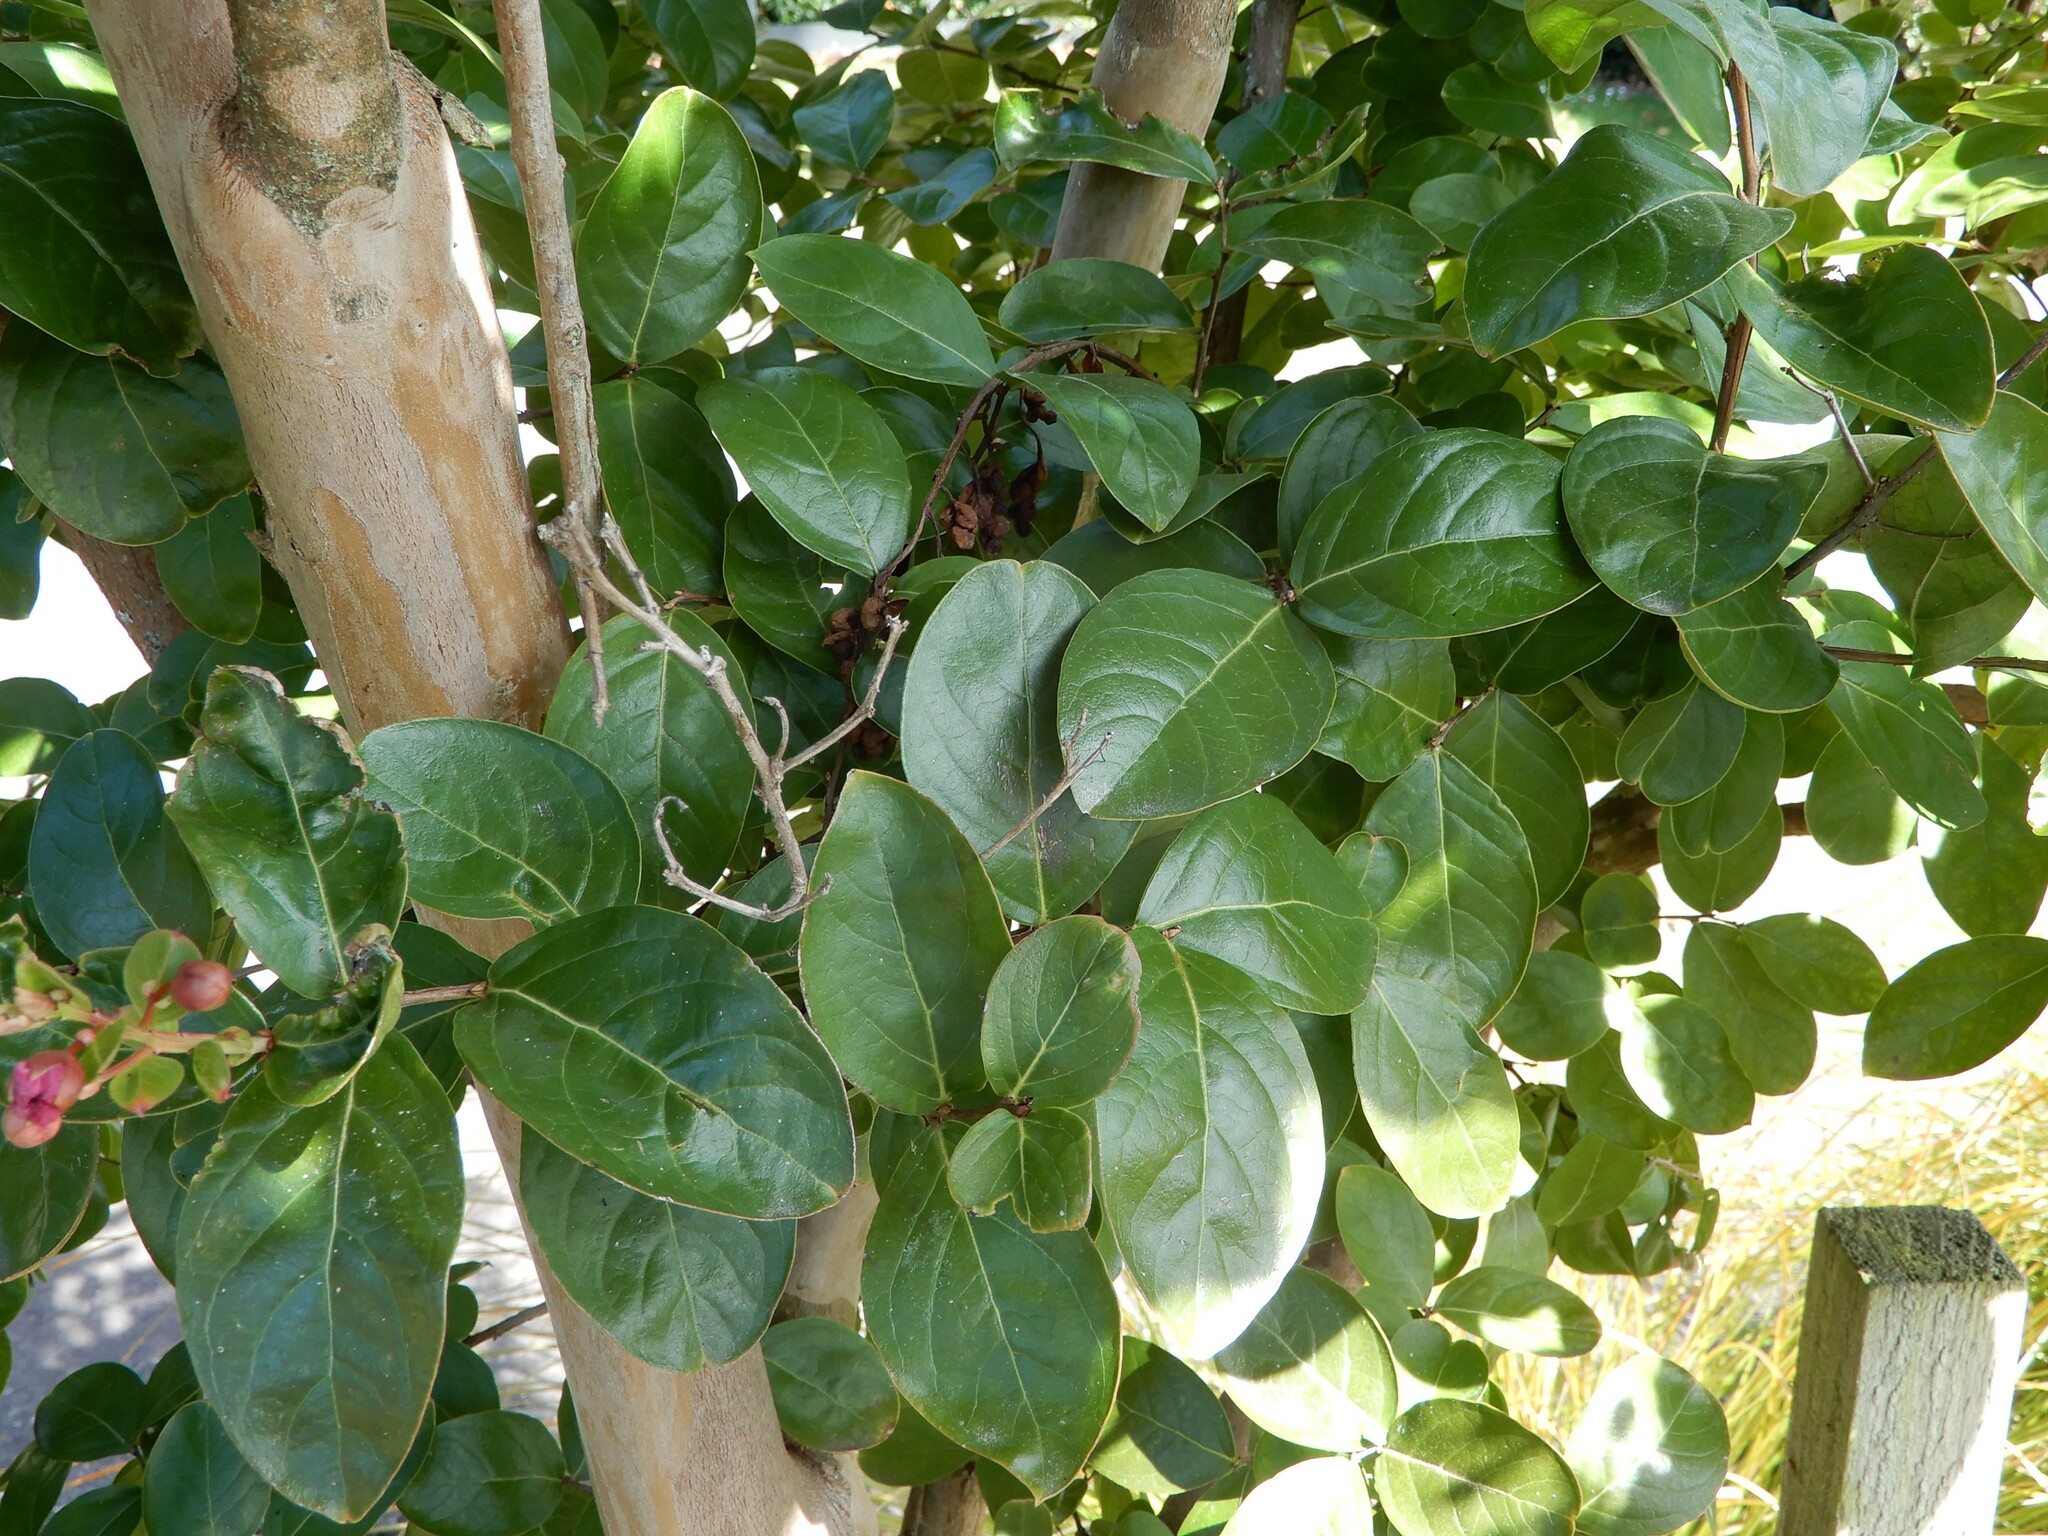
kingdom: Plantae
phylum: Tracheophyta
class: Magnoliopsida
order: Myrtales
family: Lythraceae
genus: Lagerstroemia
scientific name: Lagerstroemia indica
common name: Crape-myrtle
